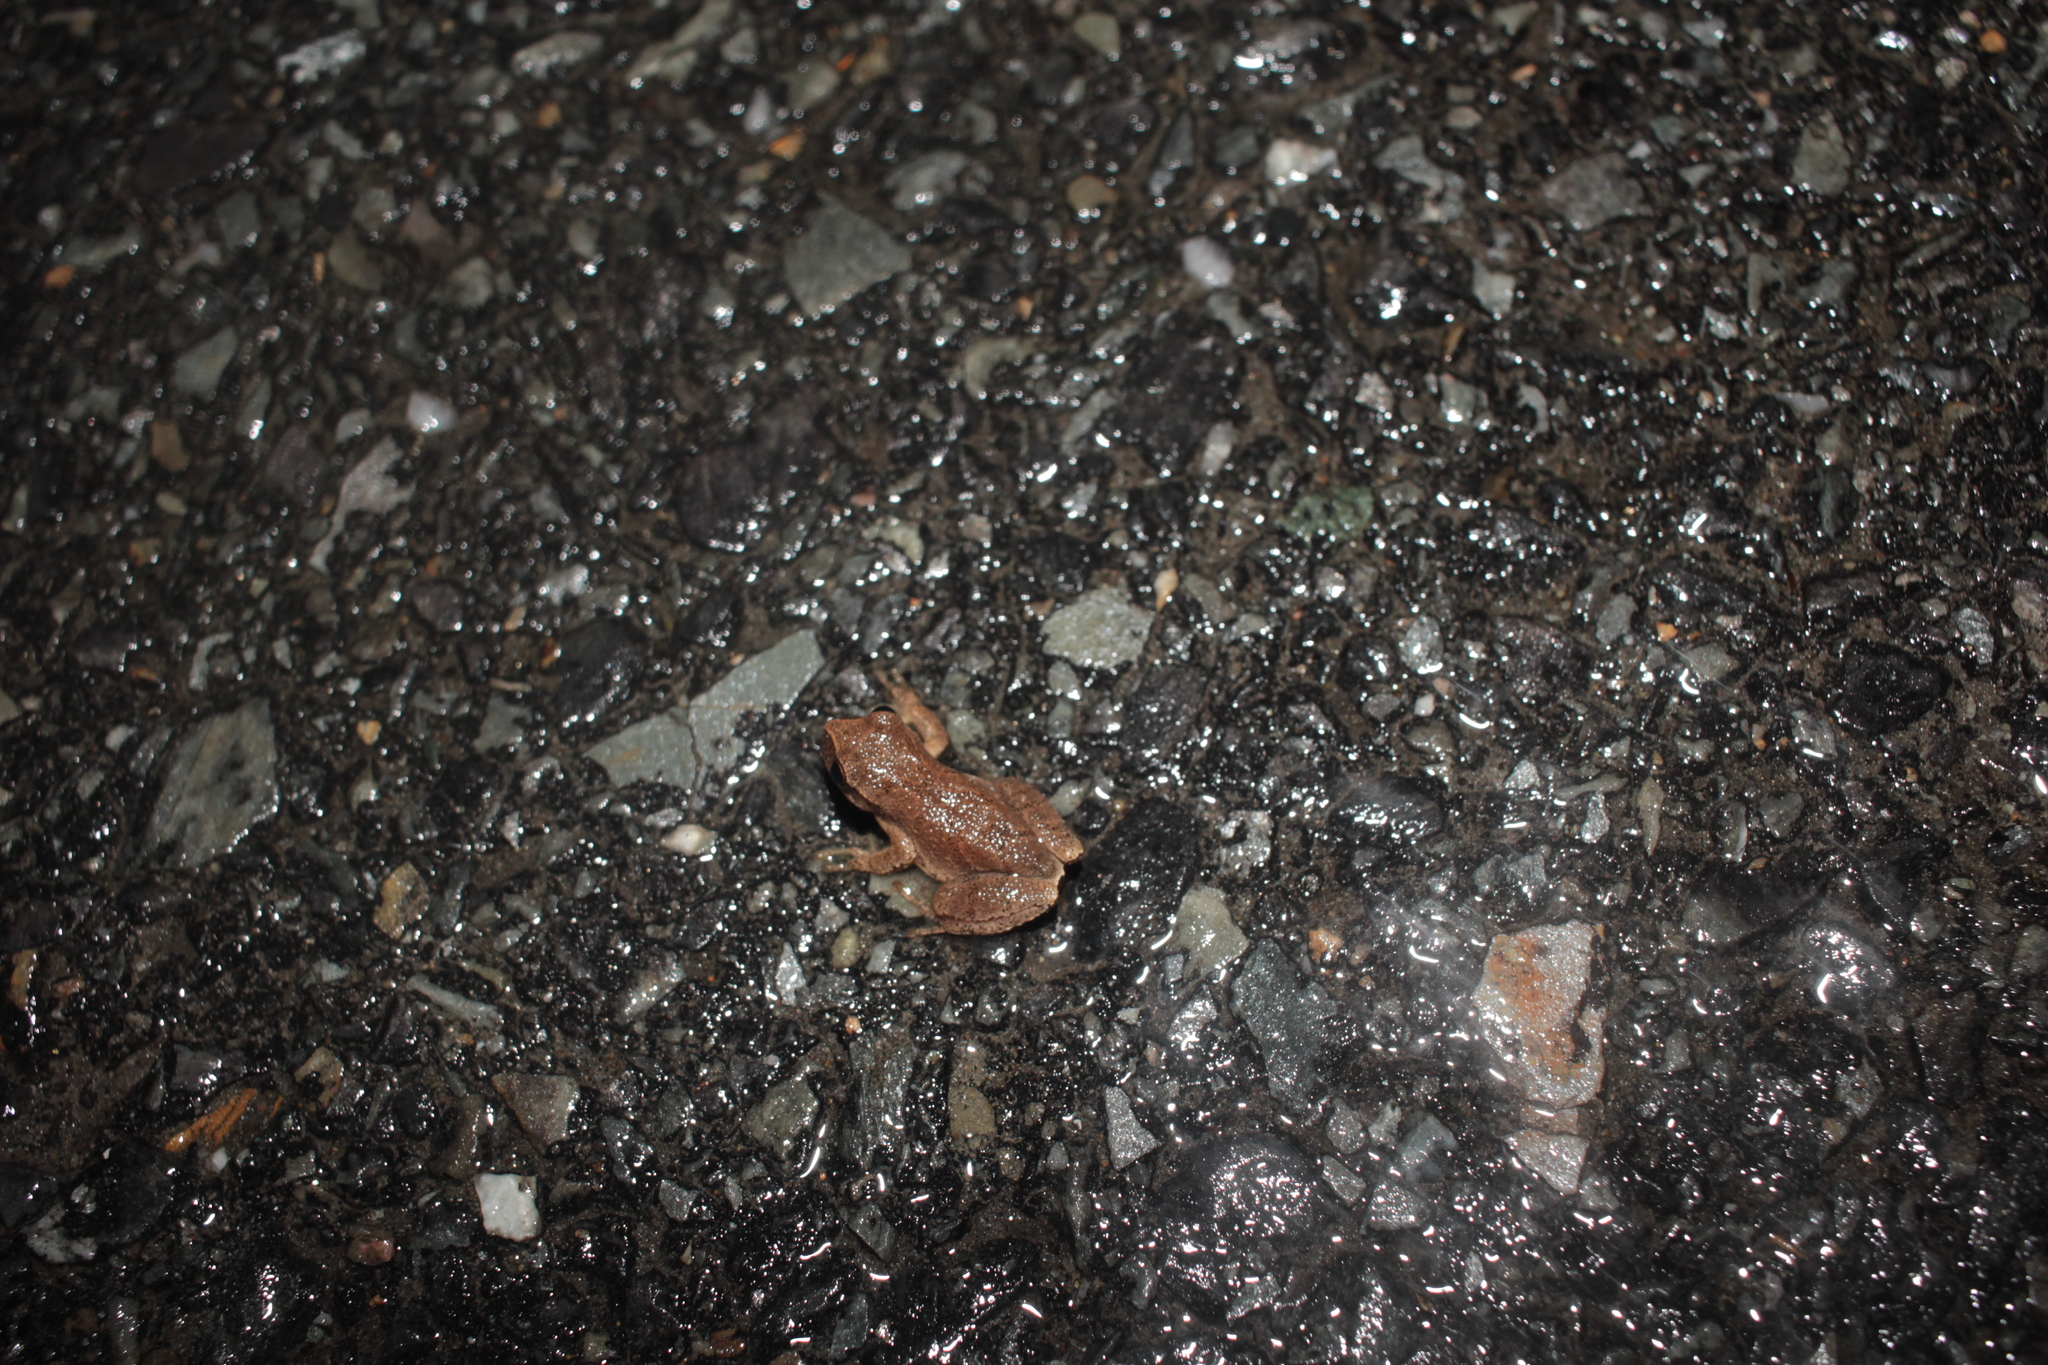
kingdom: Animalia
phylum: Chordata
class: Amphibia
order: Anura
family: Hylidae
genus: Pseudacris
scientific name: Pseudacris crucifer
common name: Spring peeper
